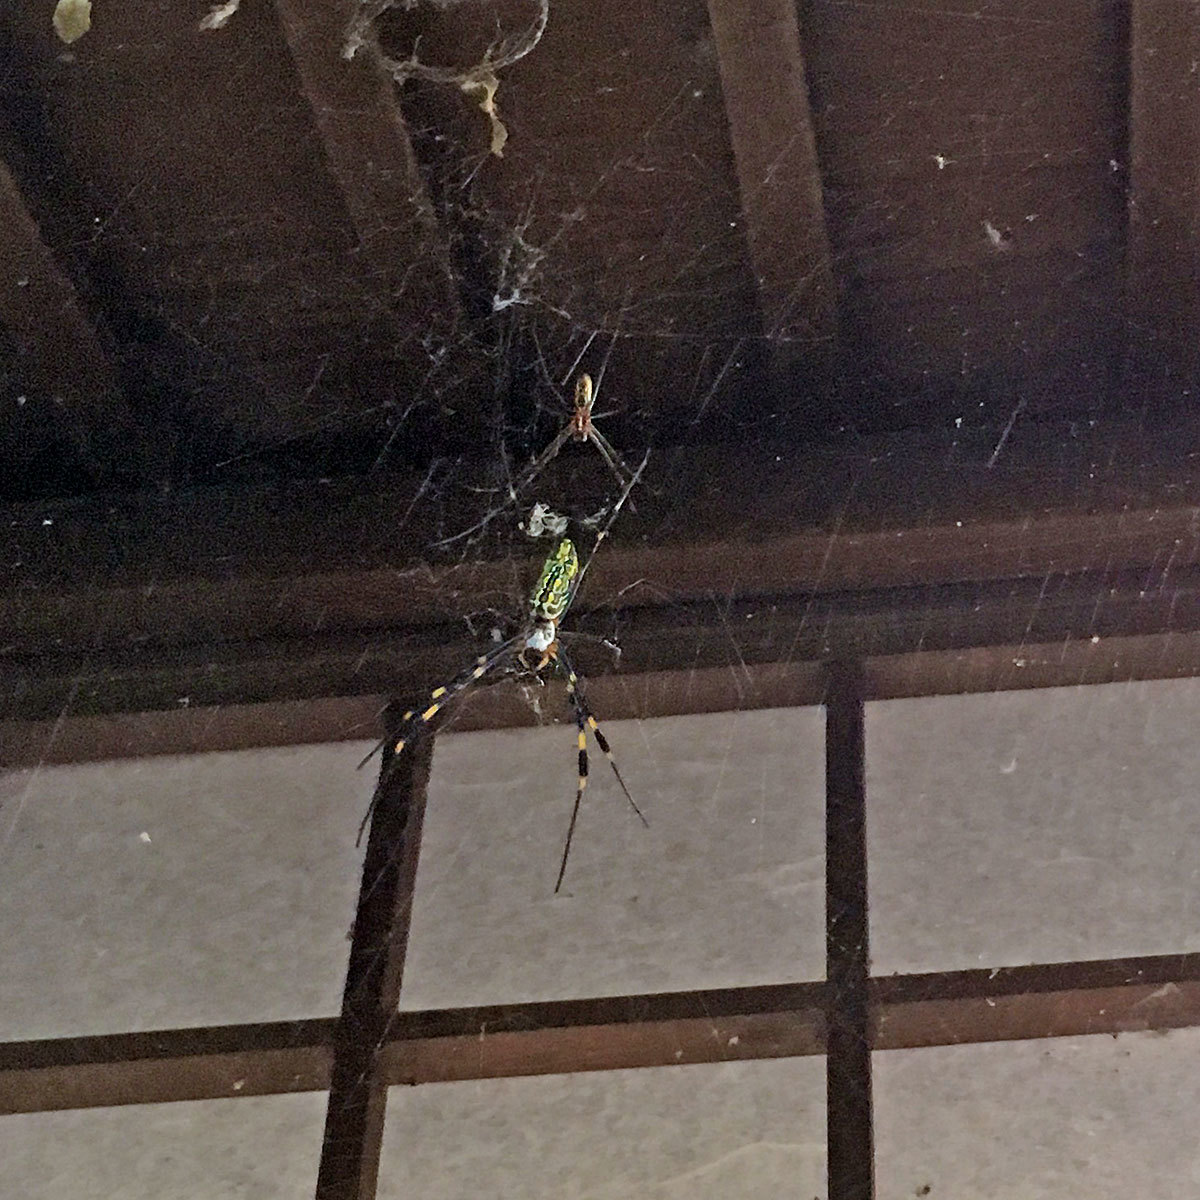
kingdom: Animalia
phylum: Arthropoda
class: Arachnida
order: Araneae
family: Araneidae
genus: Trichonephila
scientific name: Trichonephila clavata
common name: Jorō spider
